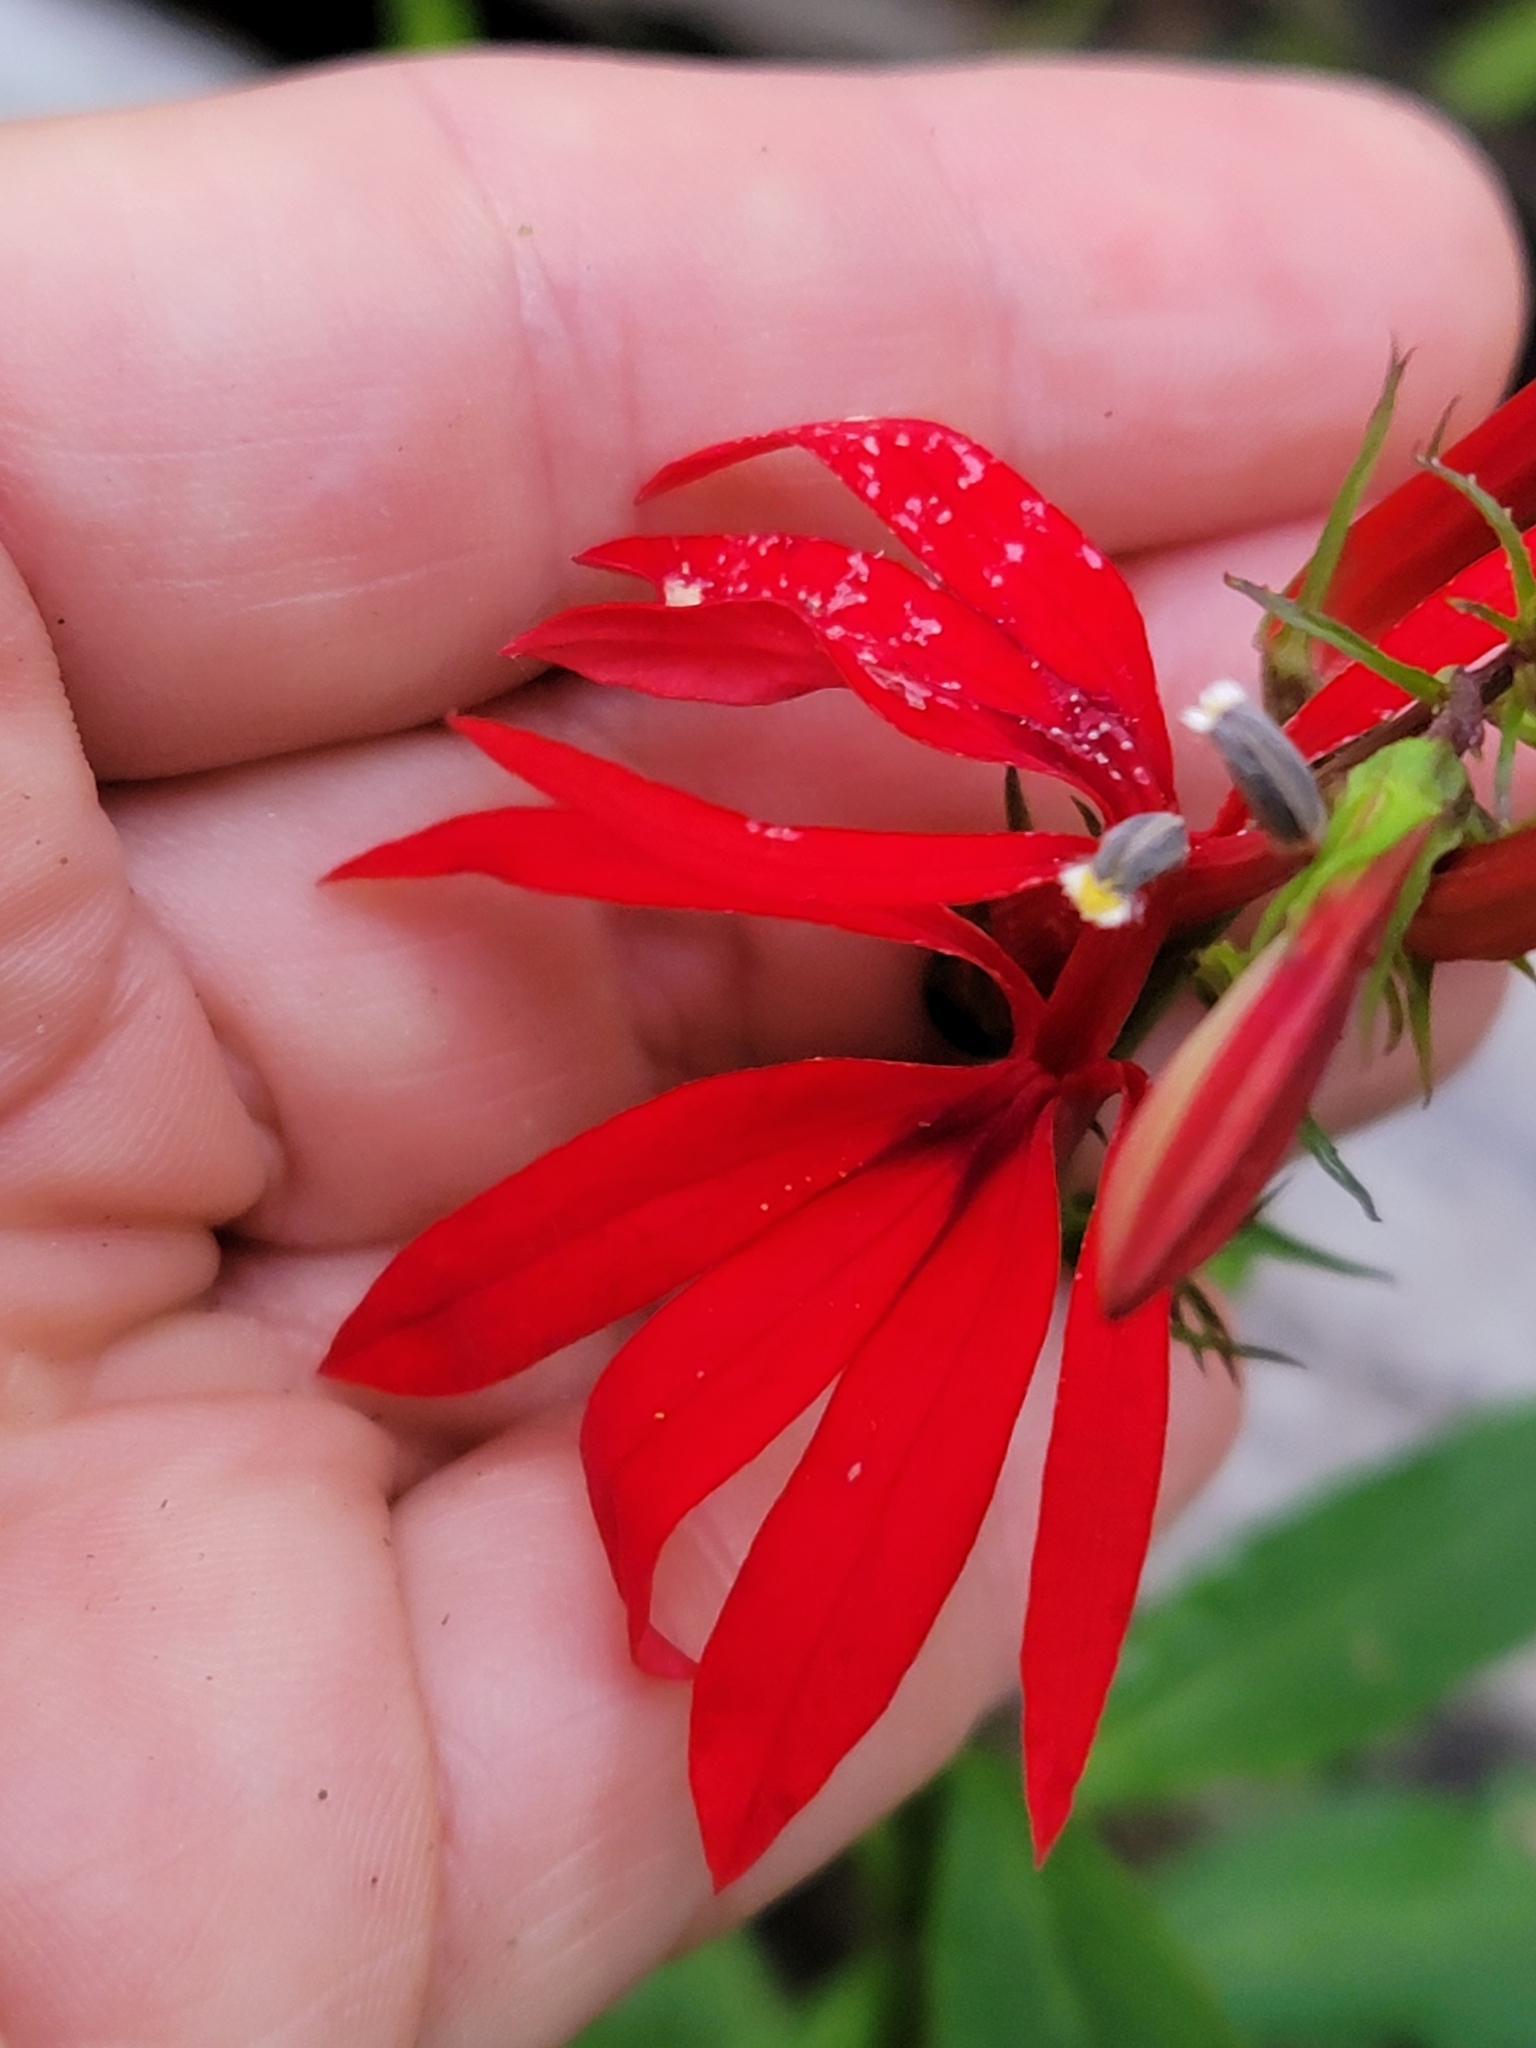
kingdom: Plantae
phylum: Tracheophyta
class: Magnoliopsida
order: Asterales
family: Campanulaceae
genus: Lobelia
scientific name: Lobelia cardinalis
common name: Cardinal flower
